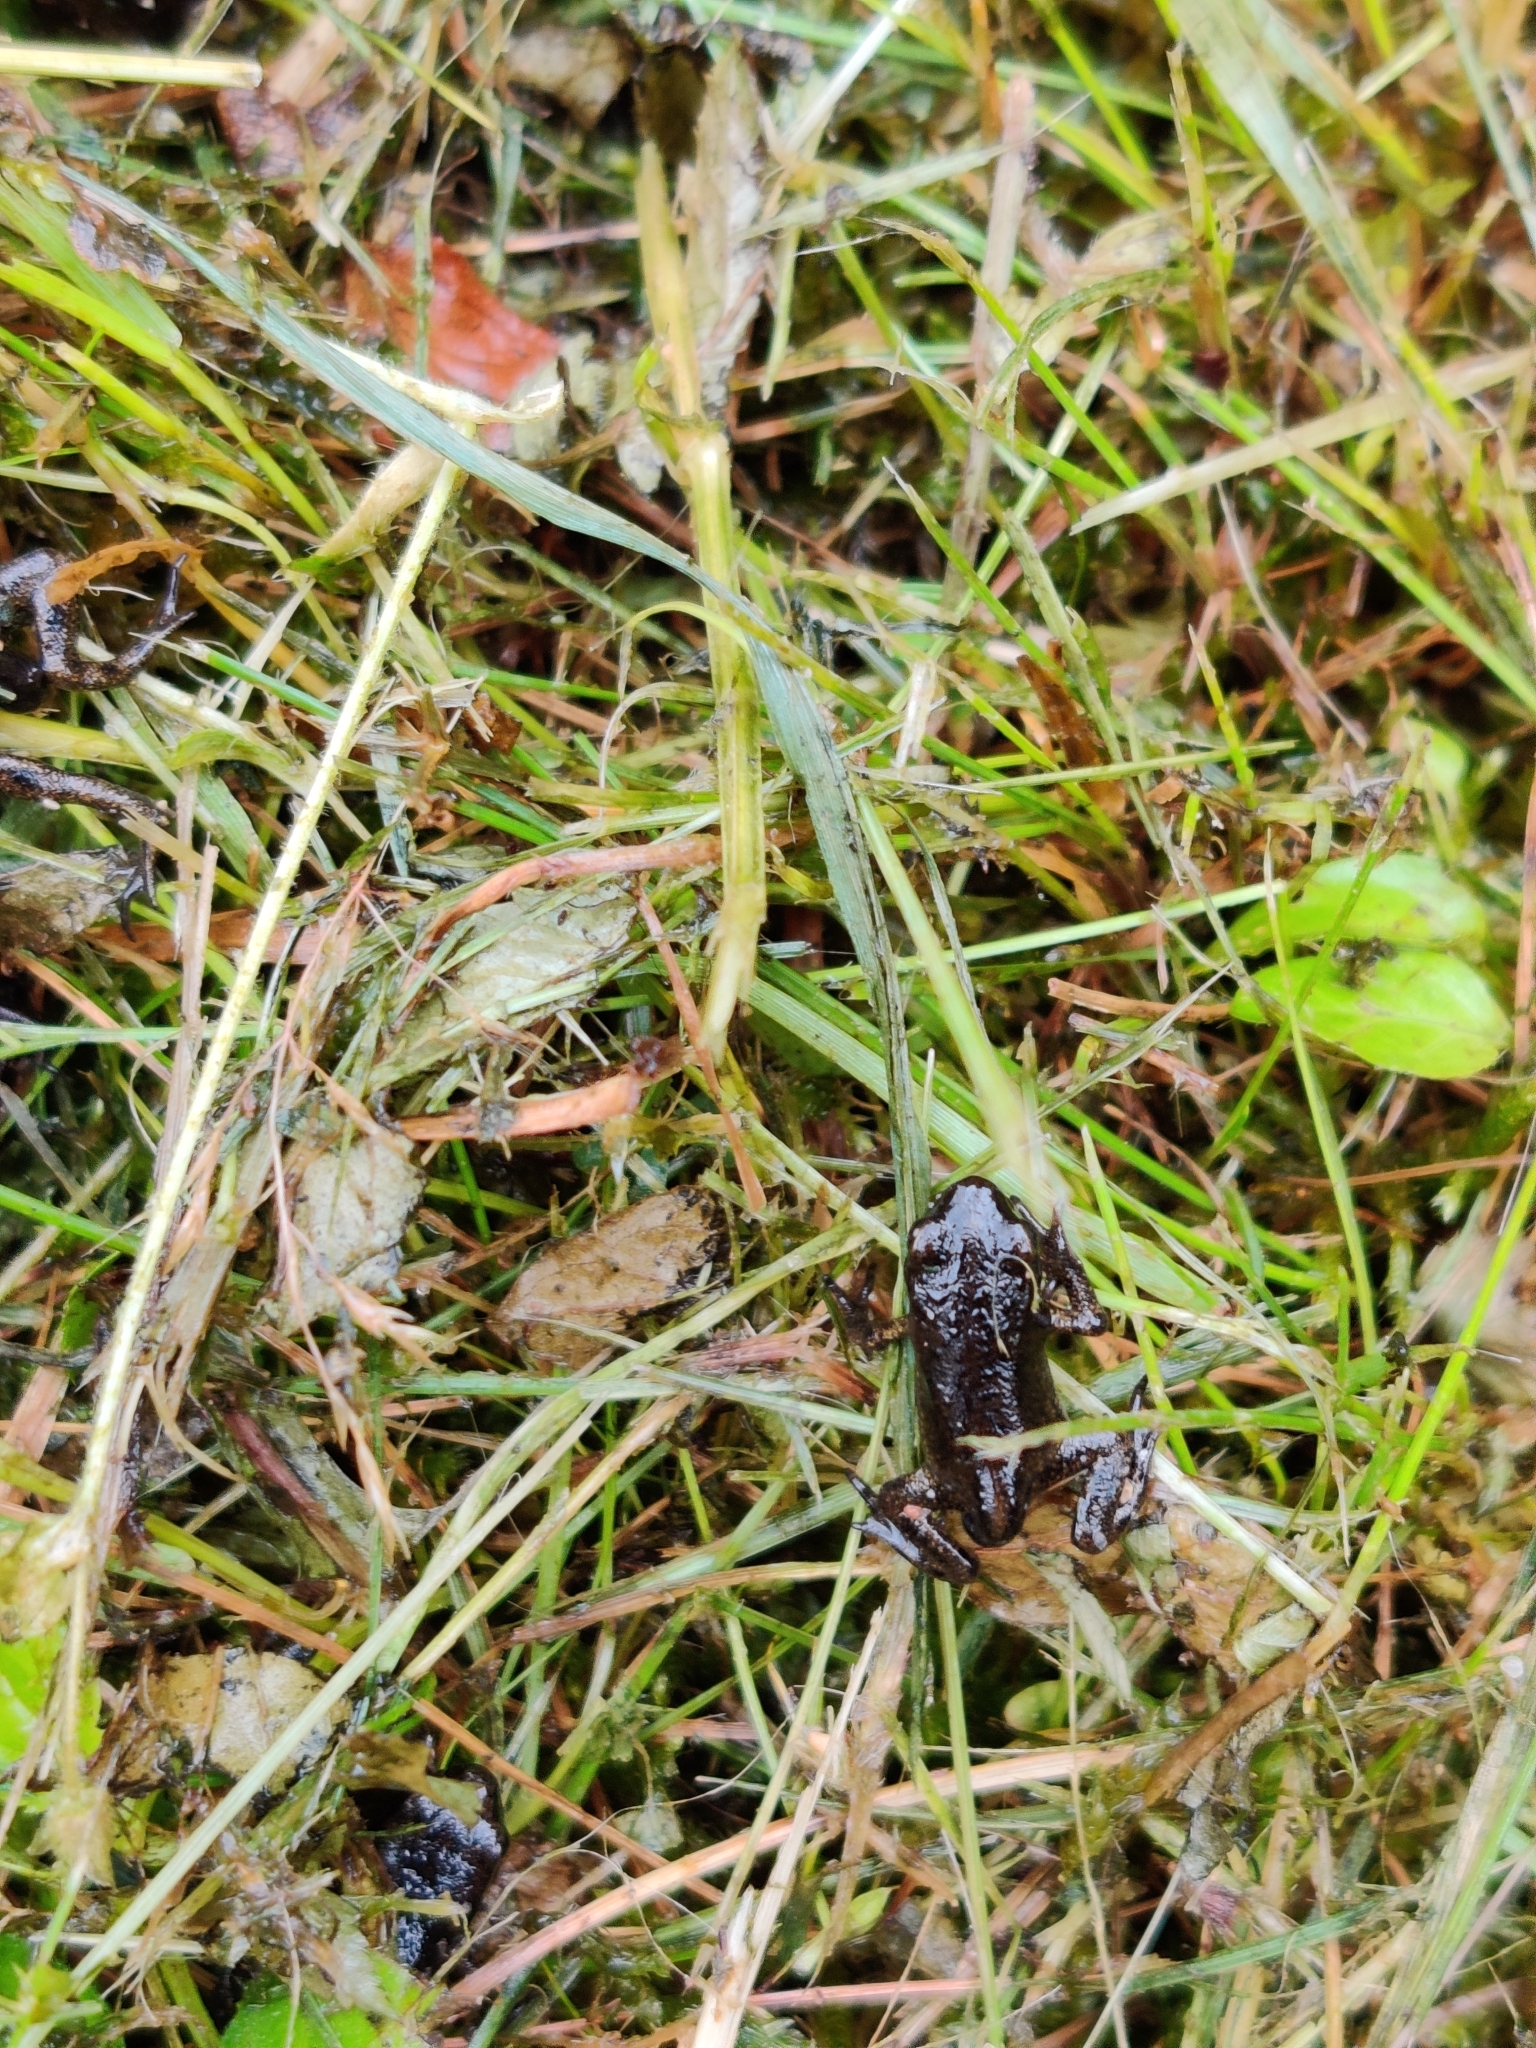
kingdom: Animalia
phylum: Chordata
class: Amphibia
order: Anura
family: Bufonidae
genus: Bufo
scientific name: Bufo bufo
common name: Common toad
